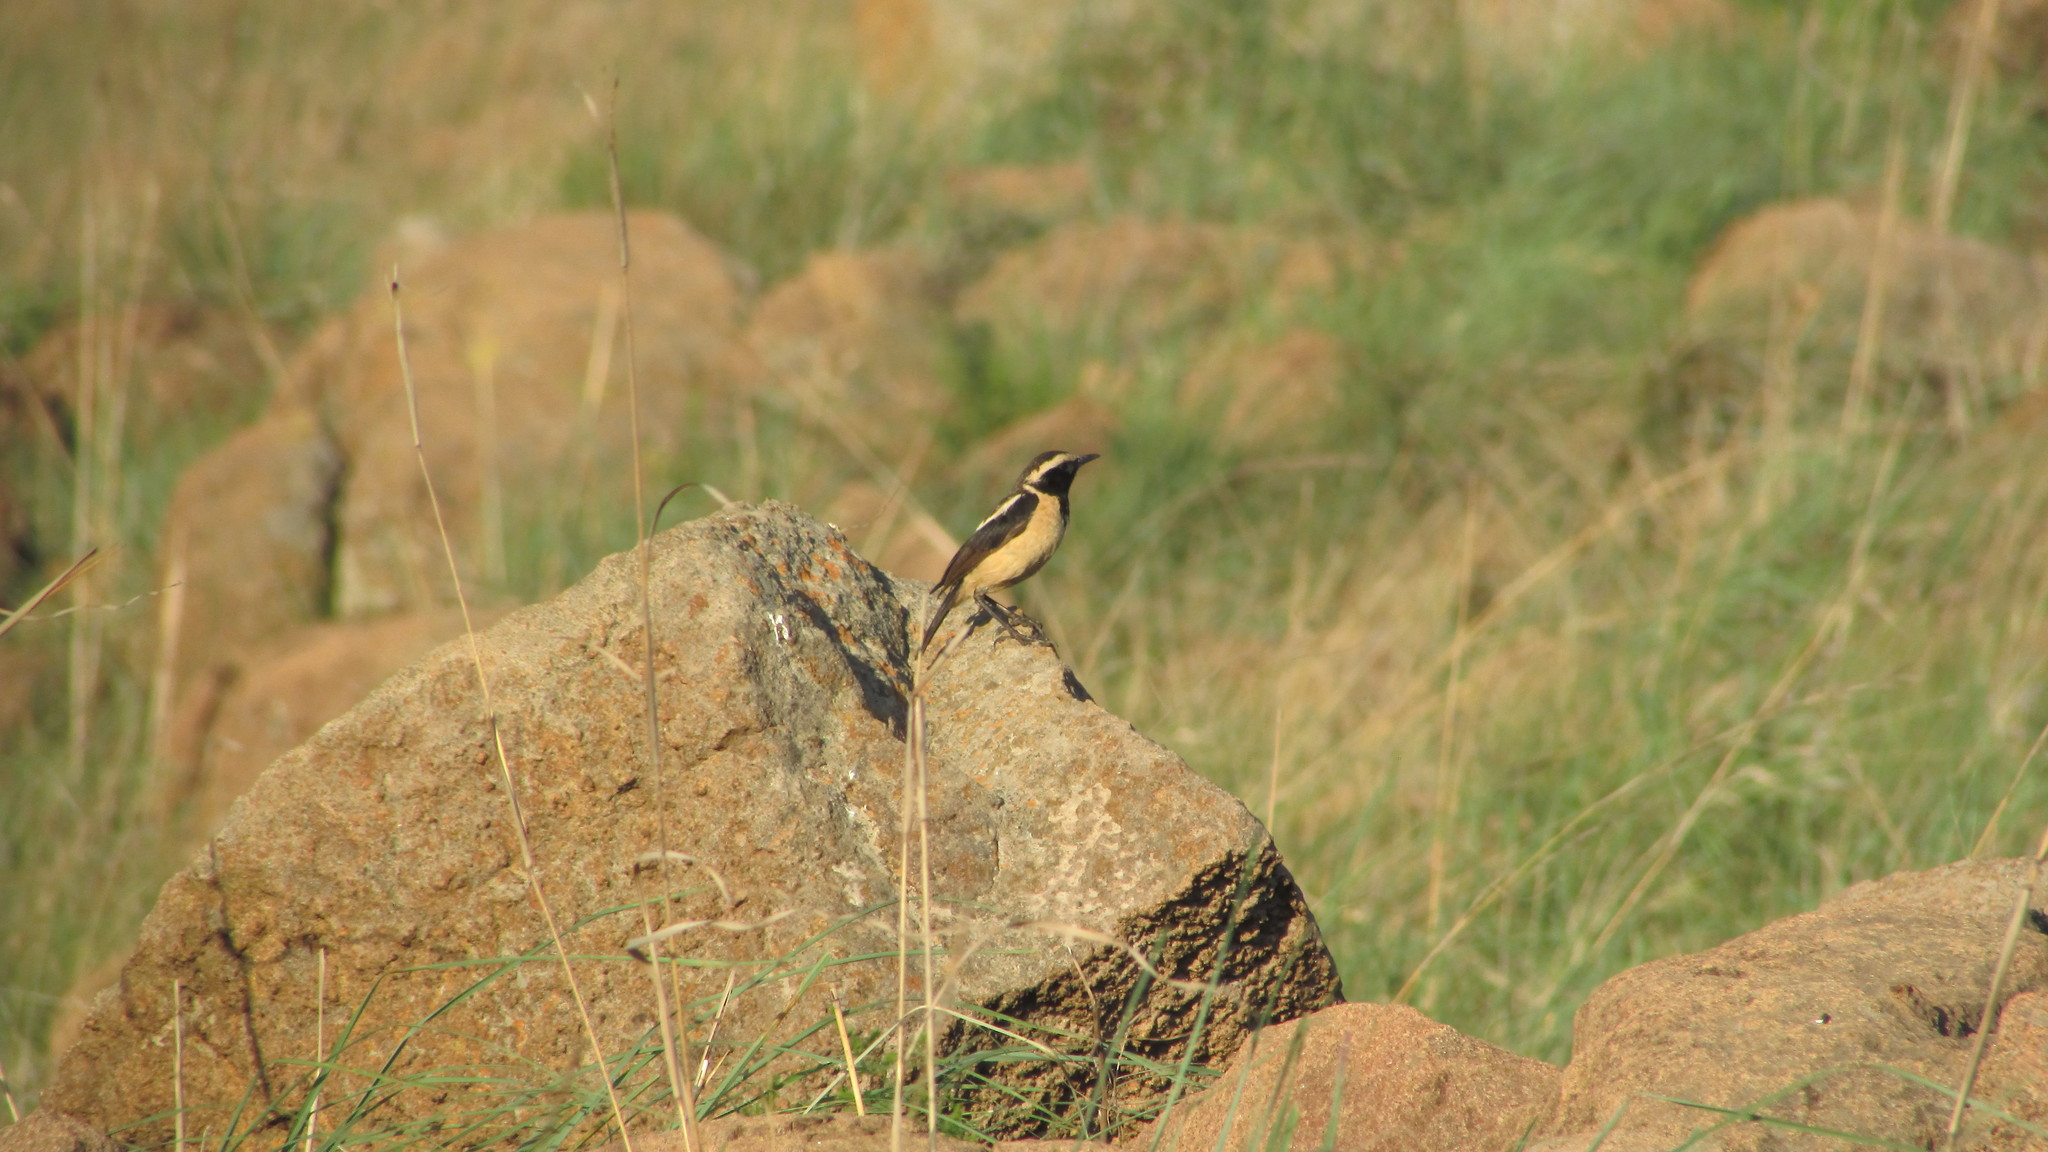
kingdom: Animalia
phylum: Chordata
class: Aves
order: Passeriformes
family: Muscicapidae
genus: Campicoloides
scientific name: Campicoloides bifasciatus
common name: Buff-streaked chat
